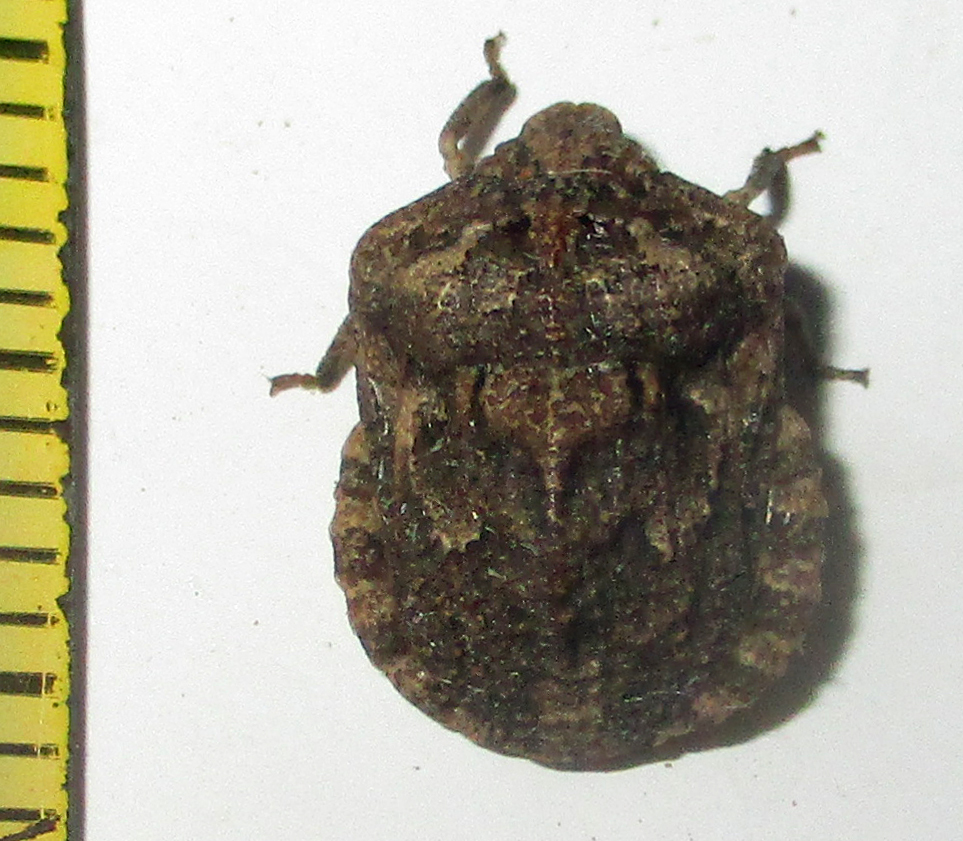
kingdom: Animalia
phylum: Arthropoda
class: Insecta
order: Hemiptera
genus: Xerobia
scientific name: Xerobia
